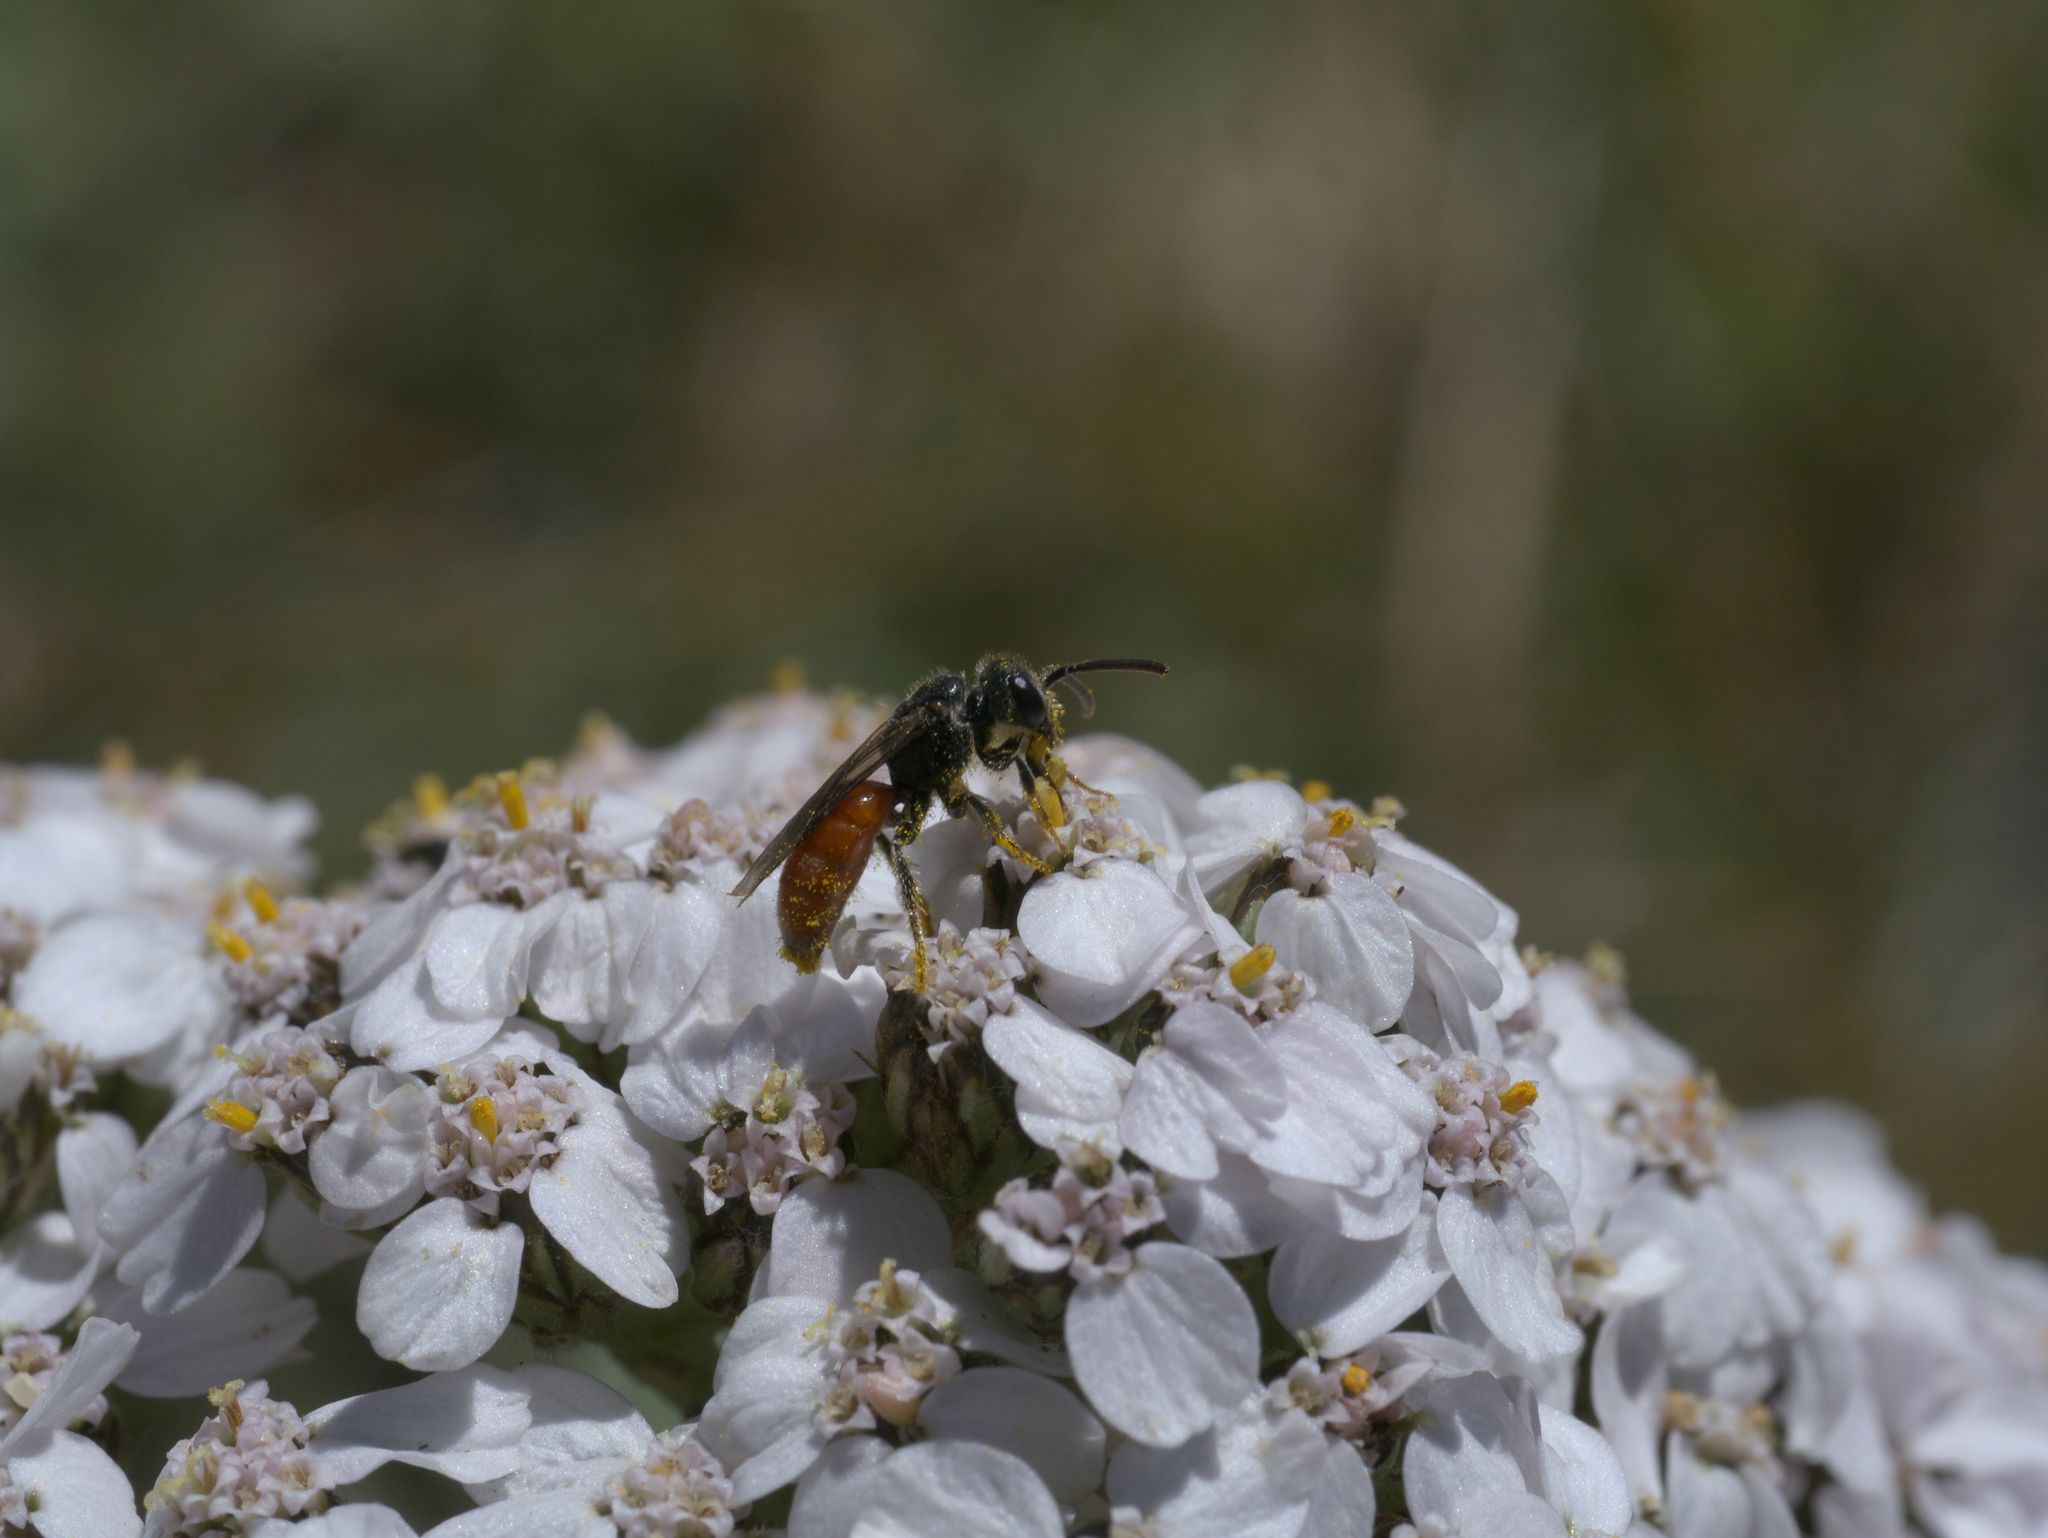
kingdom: Animalia
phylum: Arthropoda
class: Insecta
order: Hymenoptera
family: Halictidae
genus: Sphecodes
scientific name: Sphecodes
